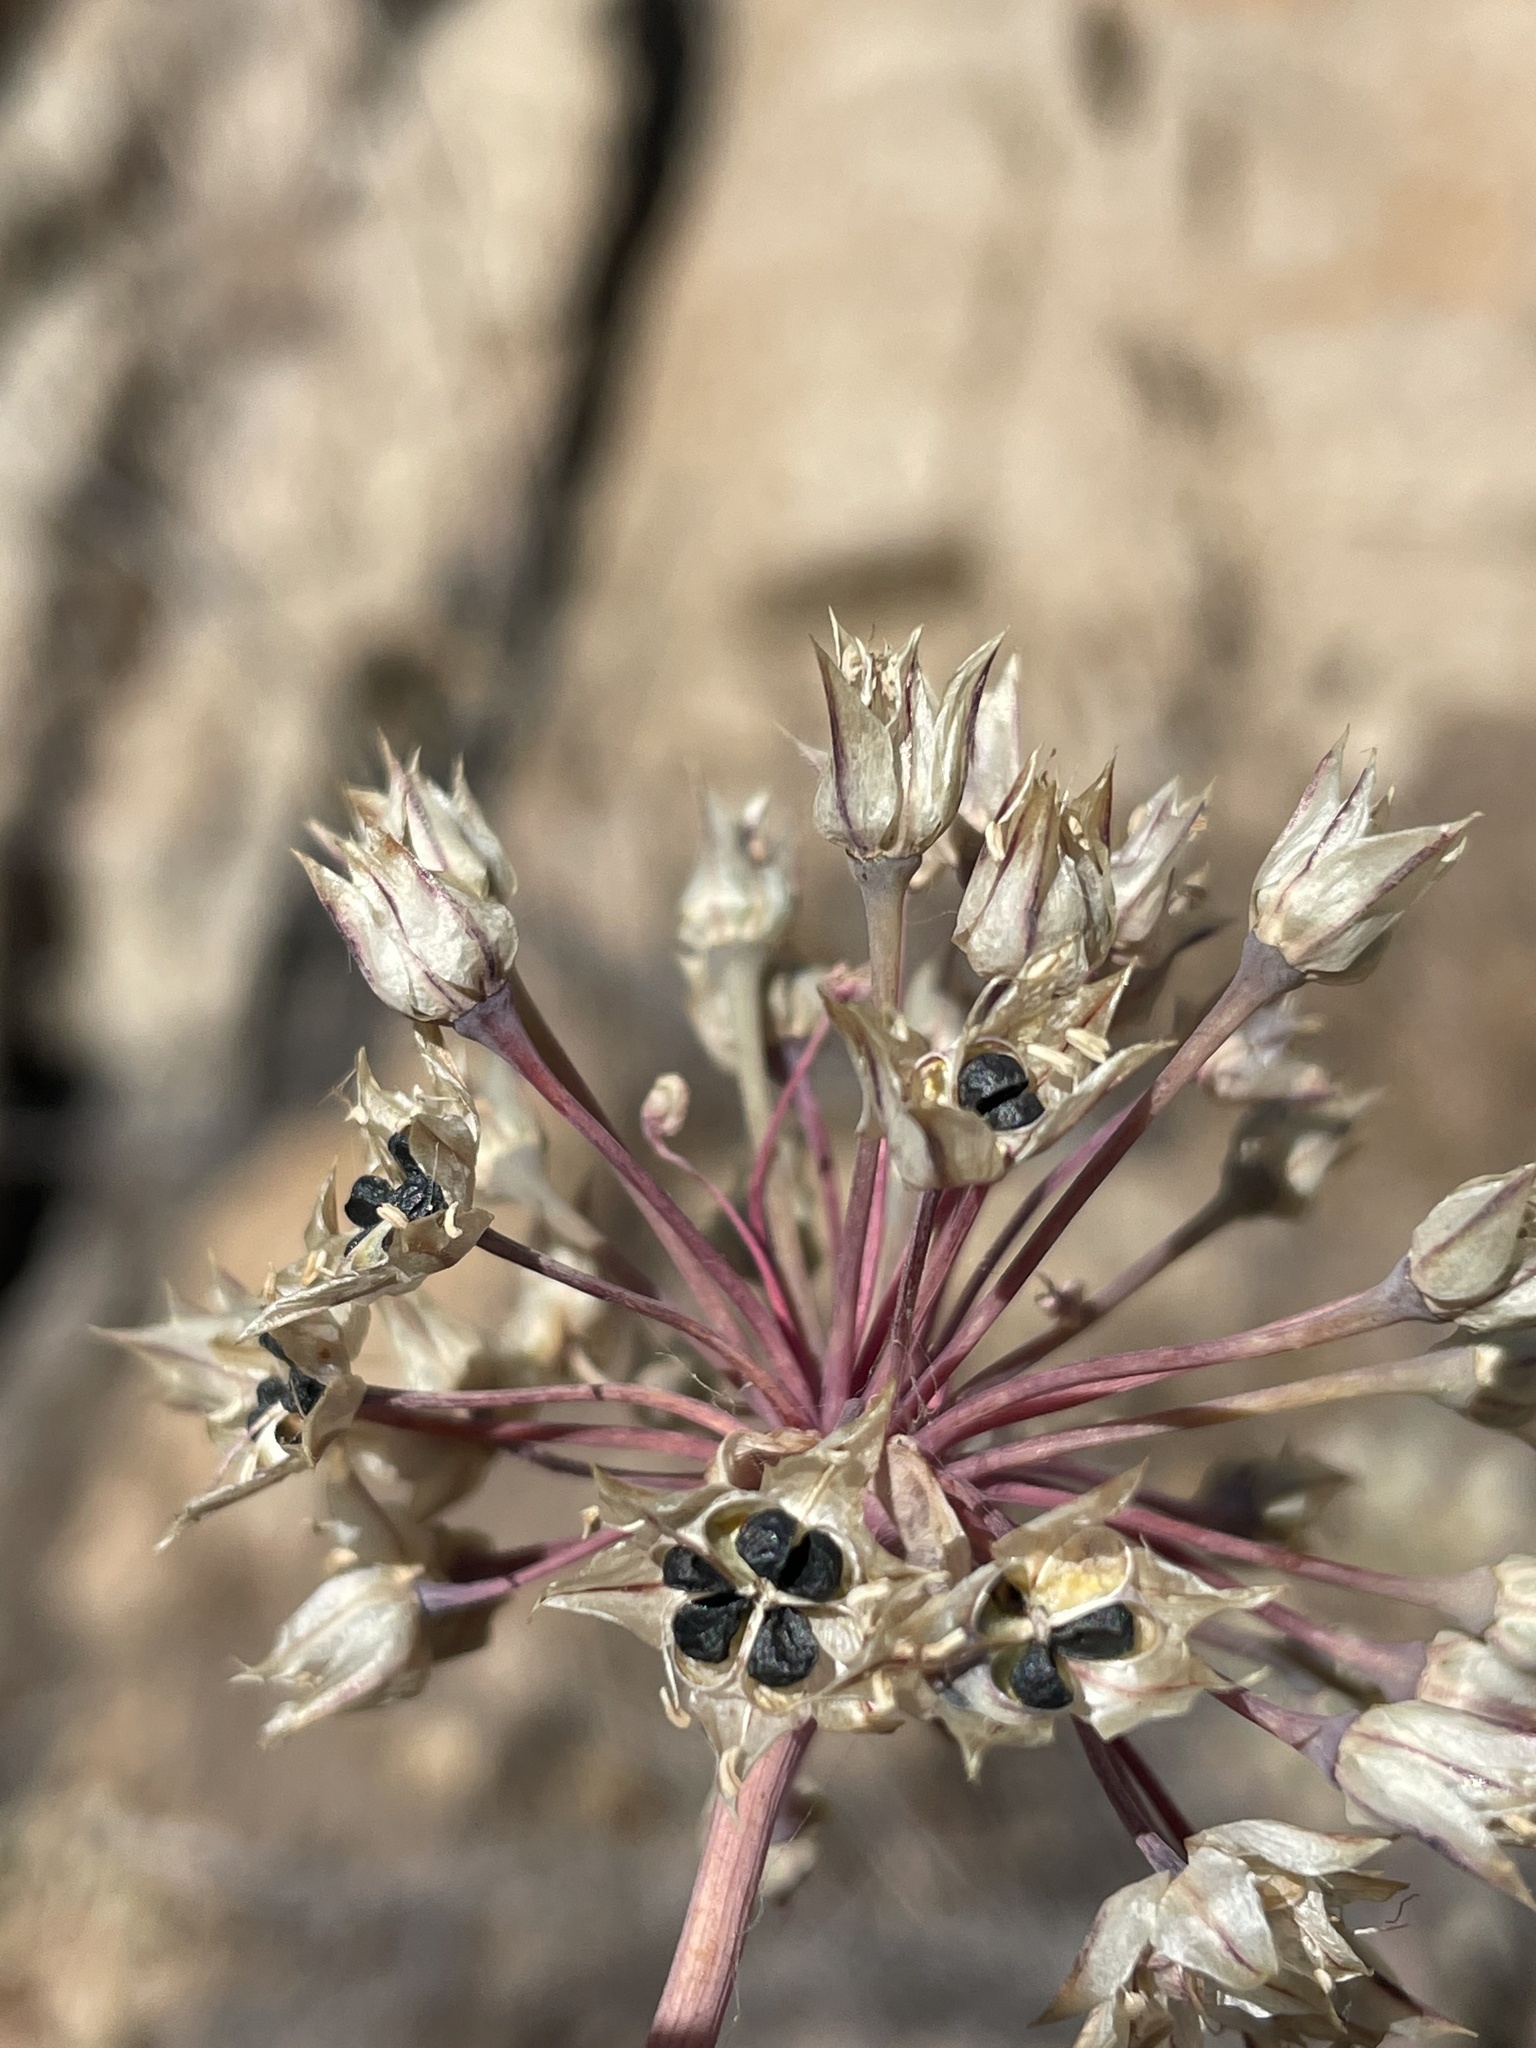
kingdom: Plantae
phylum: Tracheophyta
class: Liliopsida
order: Asparagales
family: Amaryllidaceae
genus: Allium
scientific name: Allium haematochiton
